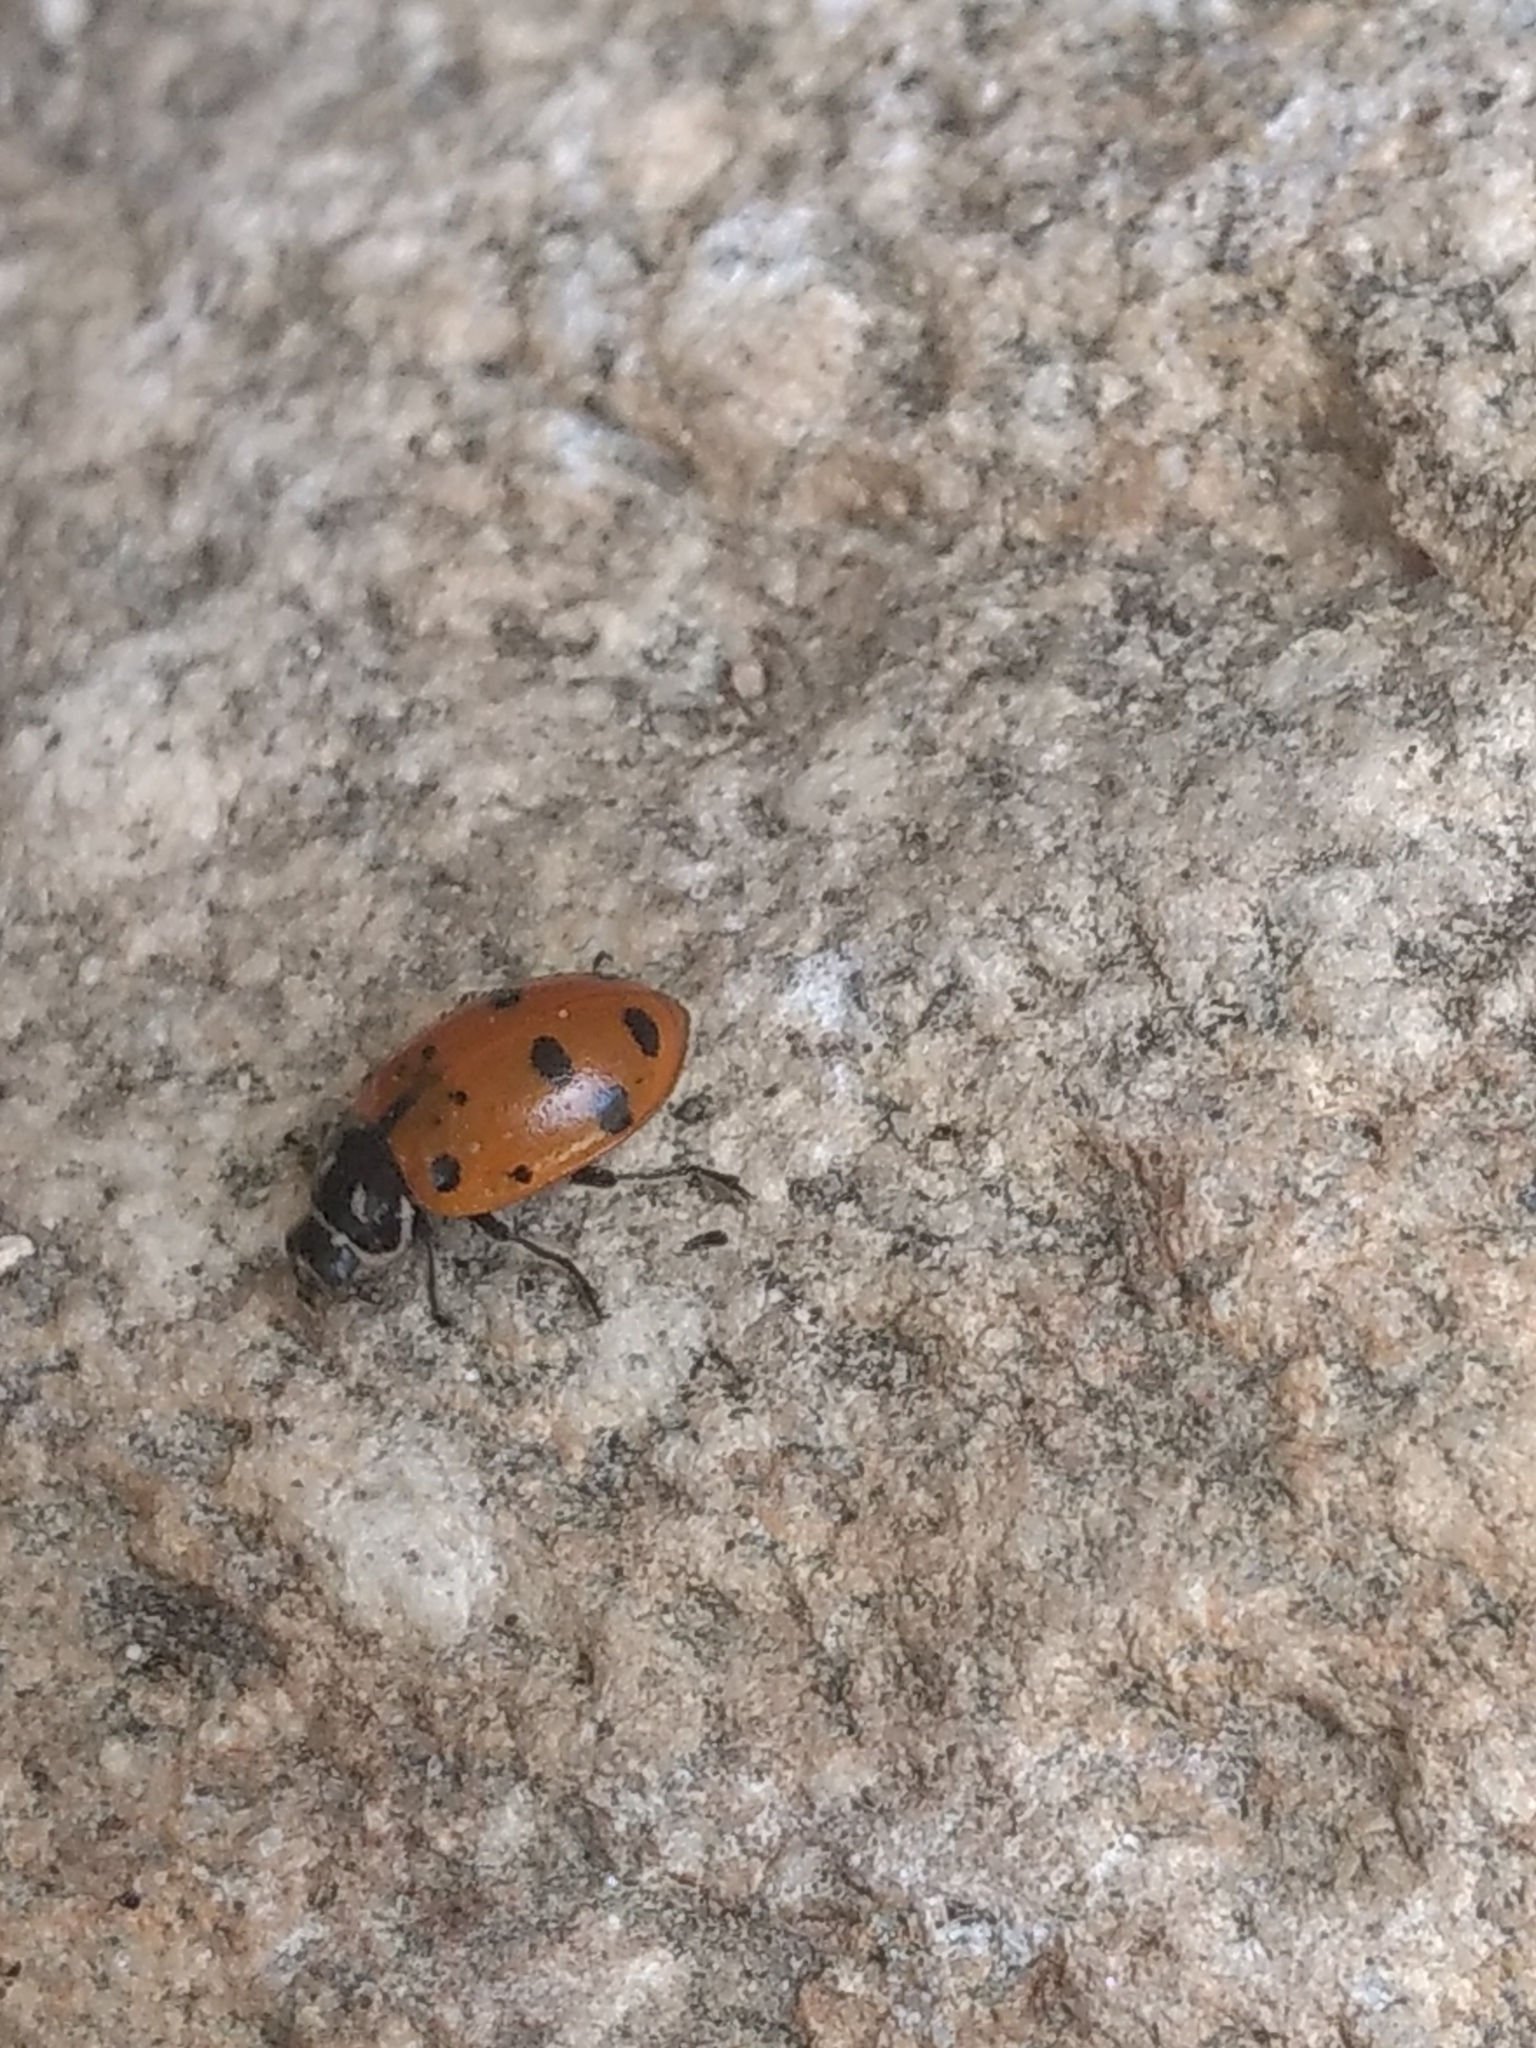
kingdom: Animalia
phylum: Arthropoda
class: Insecta
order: Coleoptera
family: Coccinellidae
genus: Hippodamia
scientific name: Hippodamia convergens
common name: Convergent lady beetle
